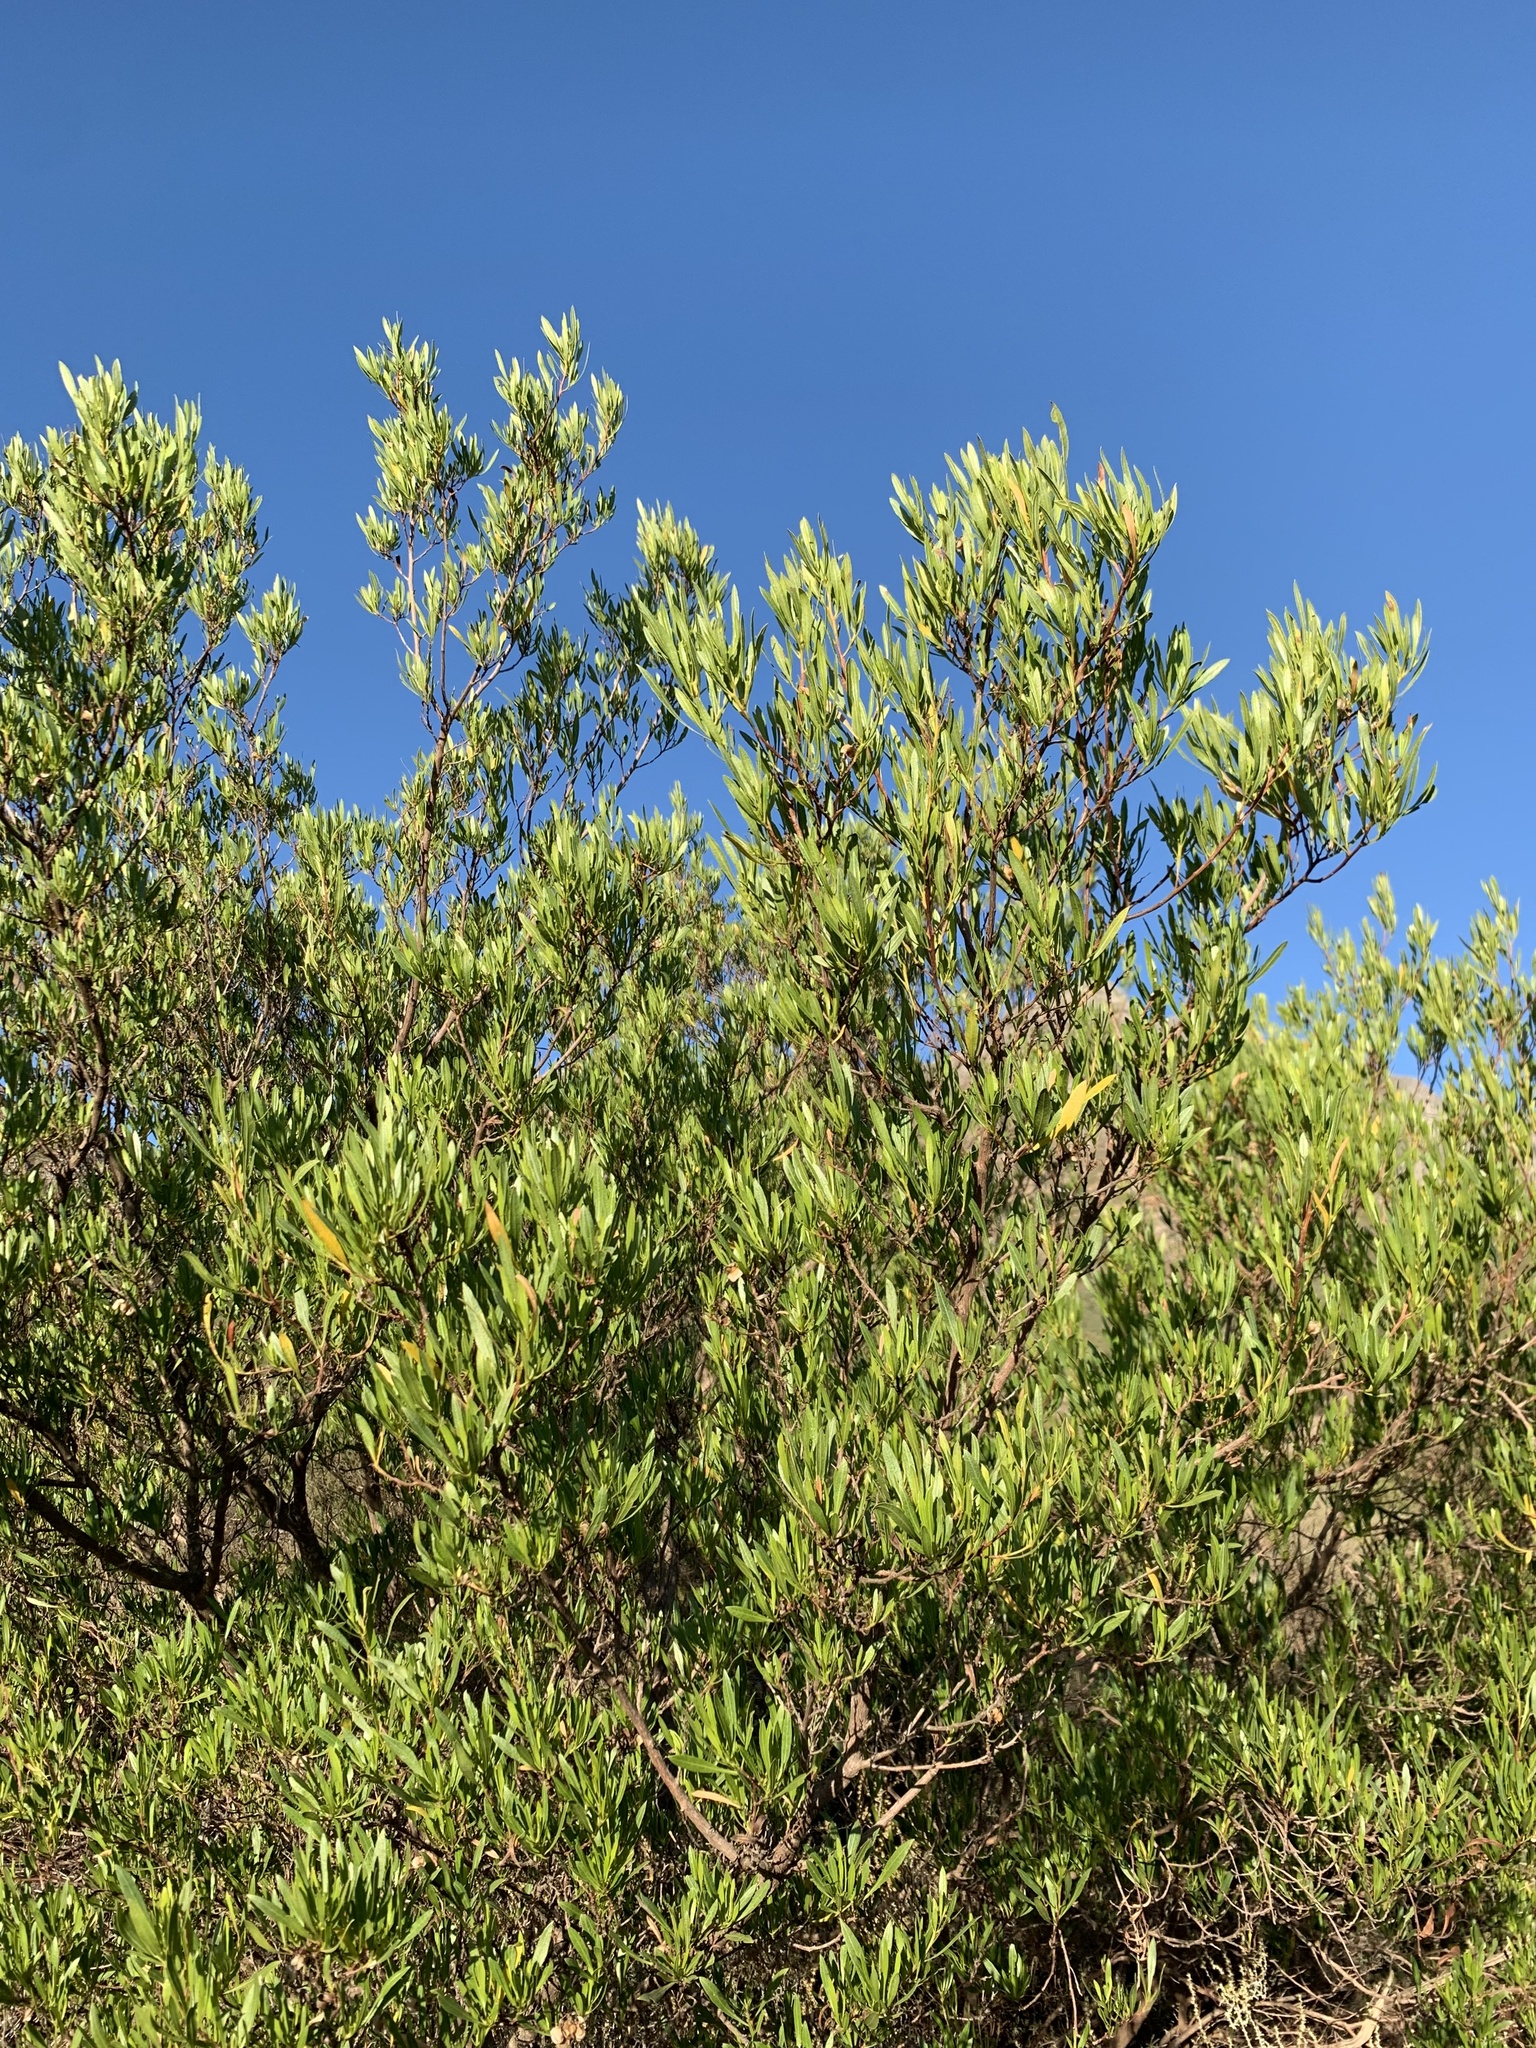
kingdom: Plantae
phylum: Tracheophyta
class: Magnoliopsida
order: Sapindales
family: Sapindaceae
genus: Dodonaea
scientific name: Dodonaea viscosa
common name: Hopbush
